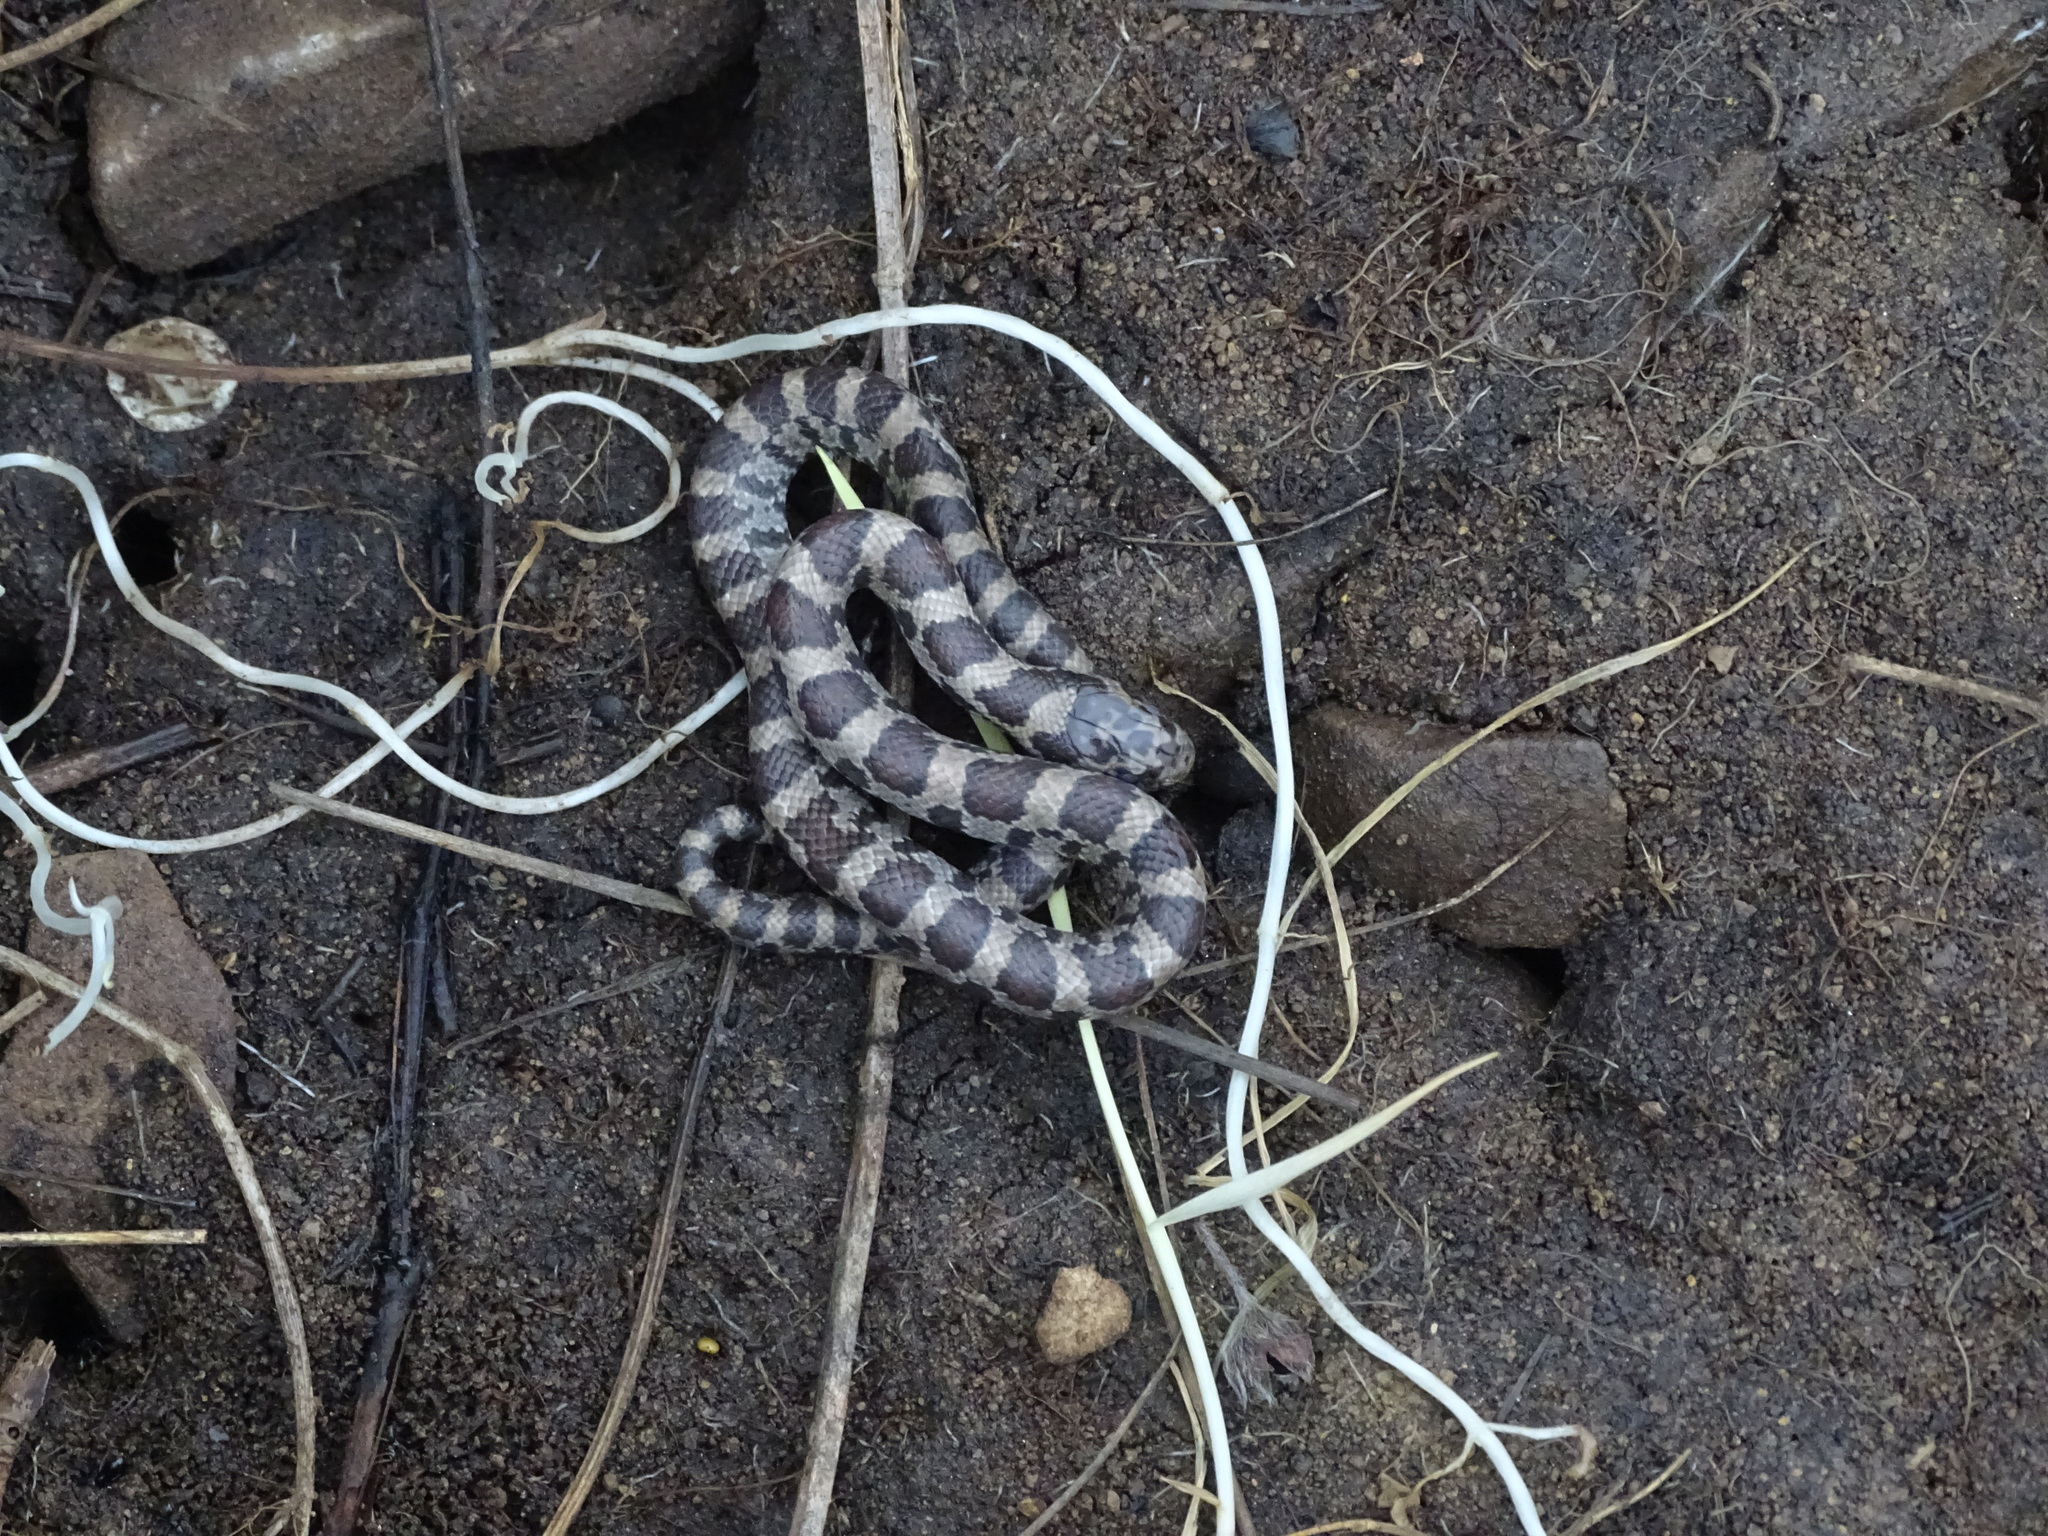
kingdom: Animalia
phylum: Chordata
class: Squamata
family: Colubridae
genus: Lampropeltis
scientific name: Lampropeltis triangulum
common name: Eastern milksnake
